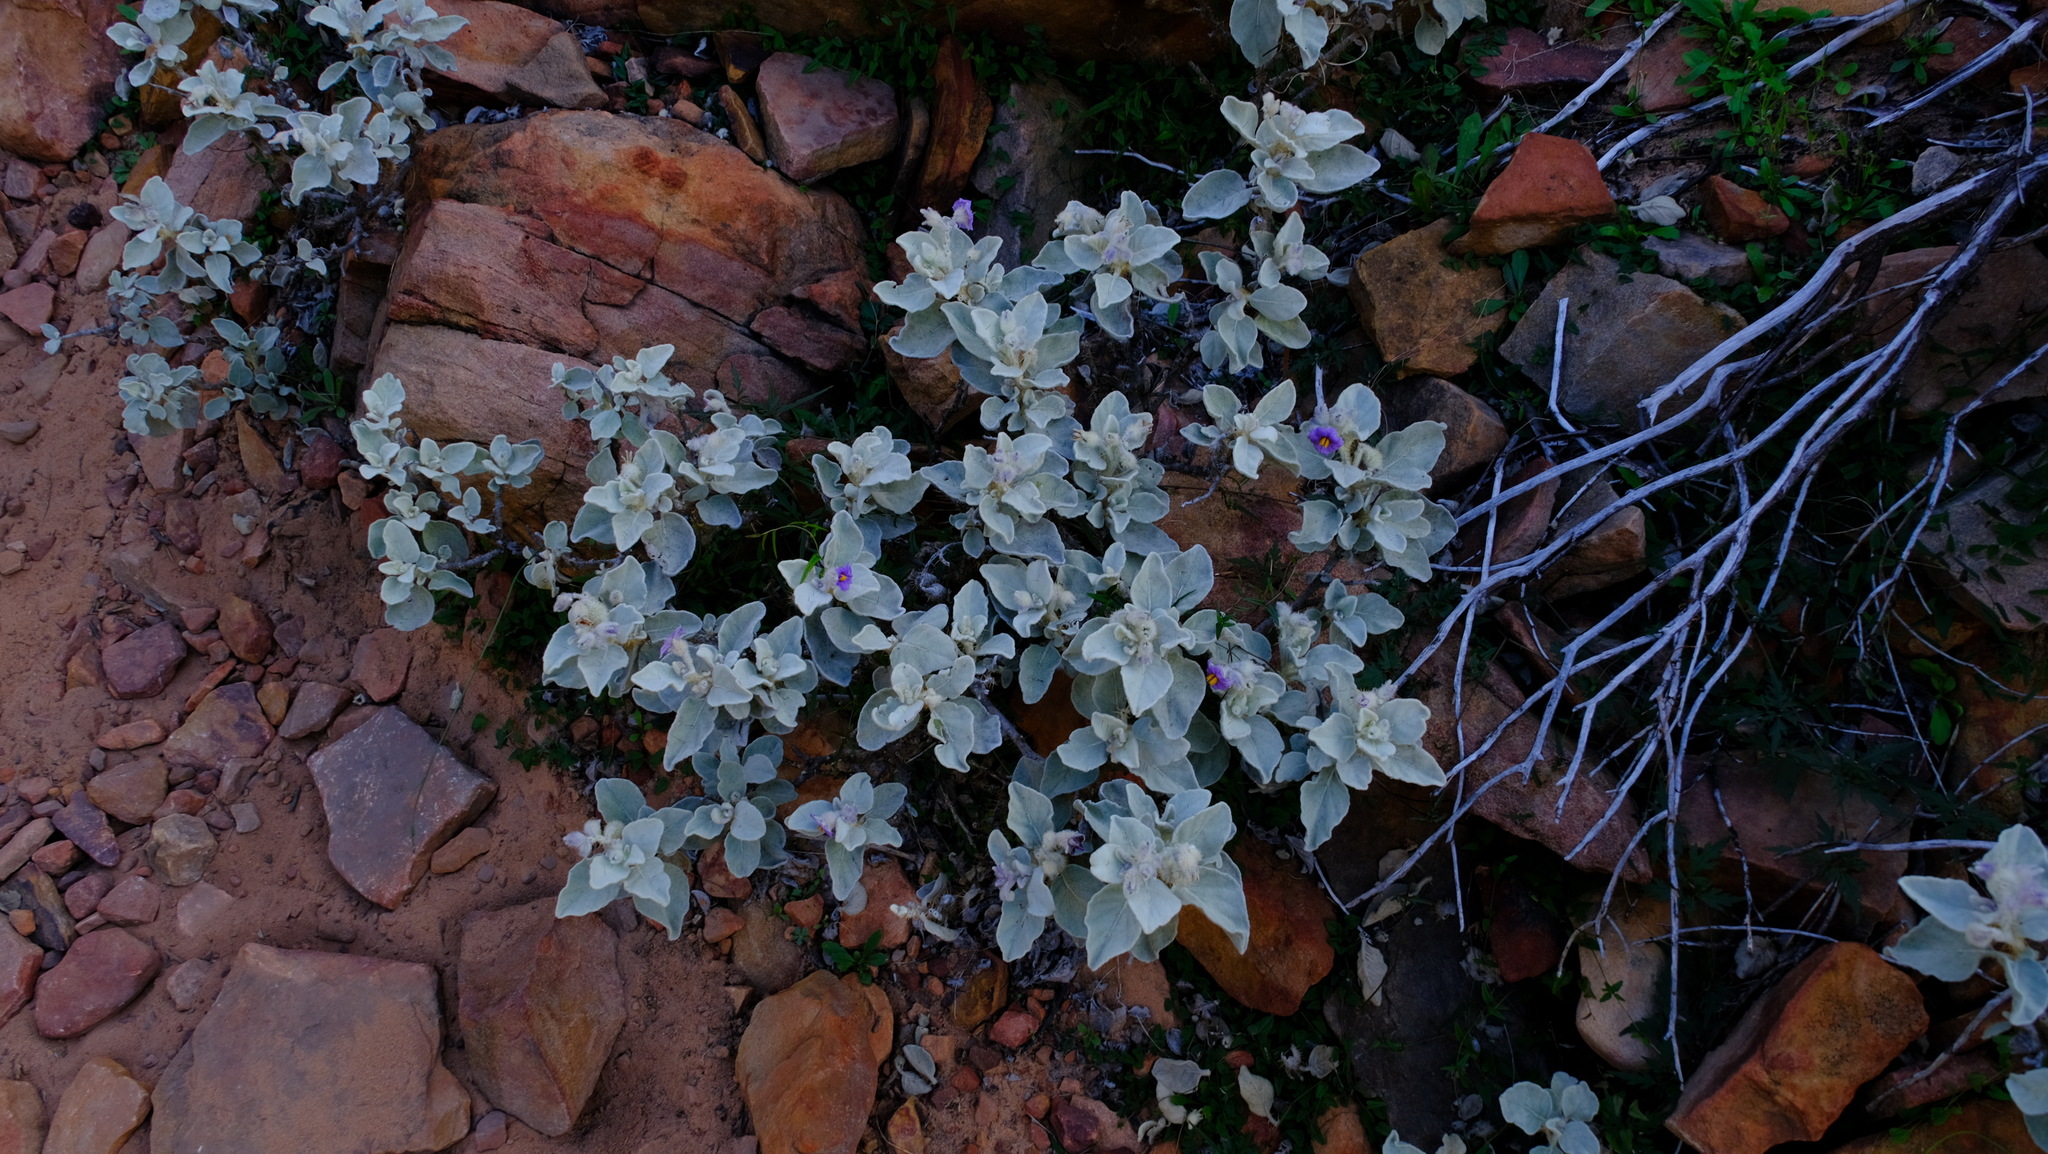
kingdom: Plantae
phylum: Tracheophyta
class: Magnoliopsida
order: Solanales
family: Solanaceae
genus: Solanum
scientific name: Solanum lasiophyllum
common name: Flannelbush
